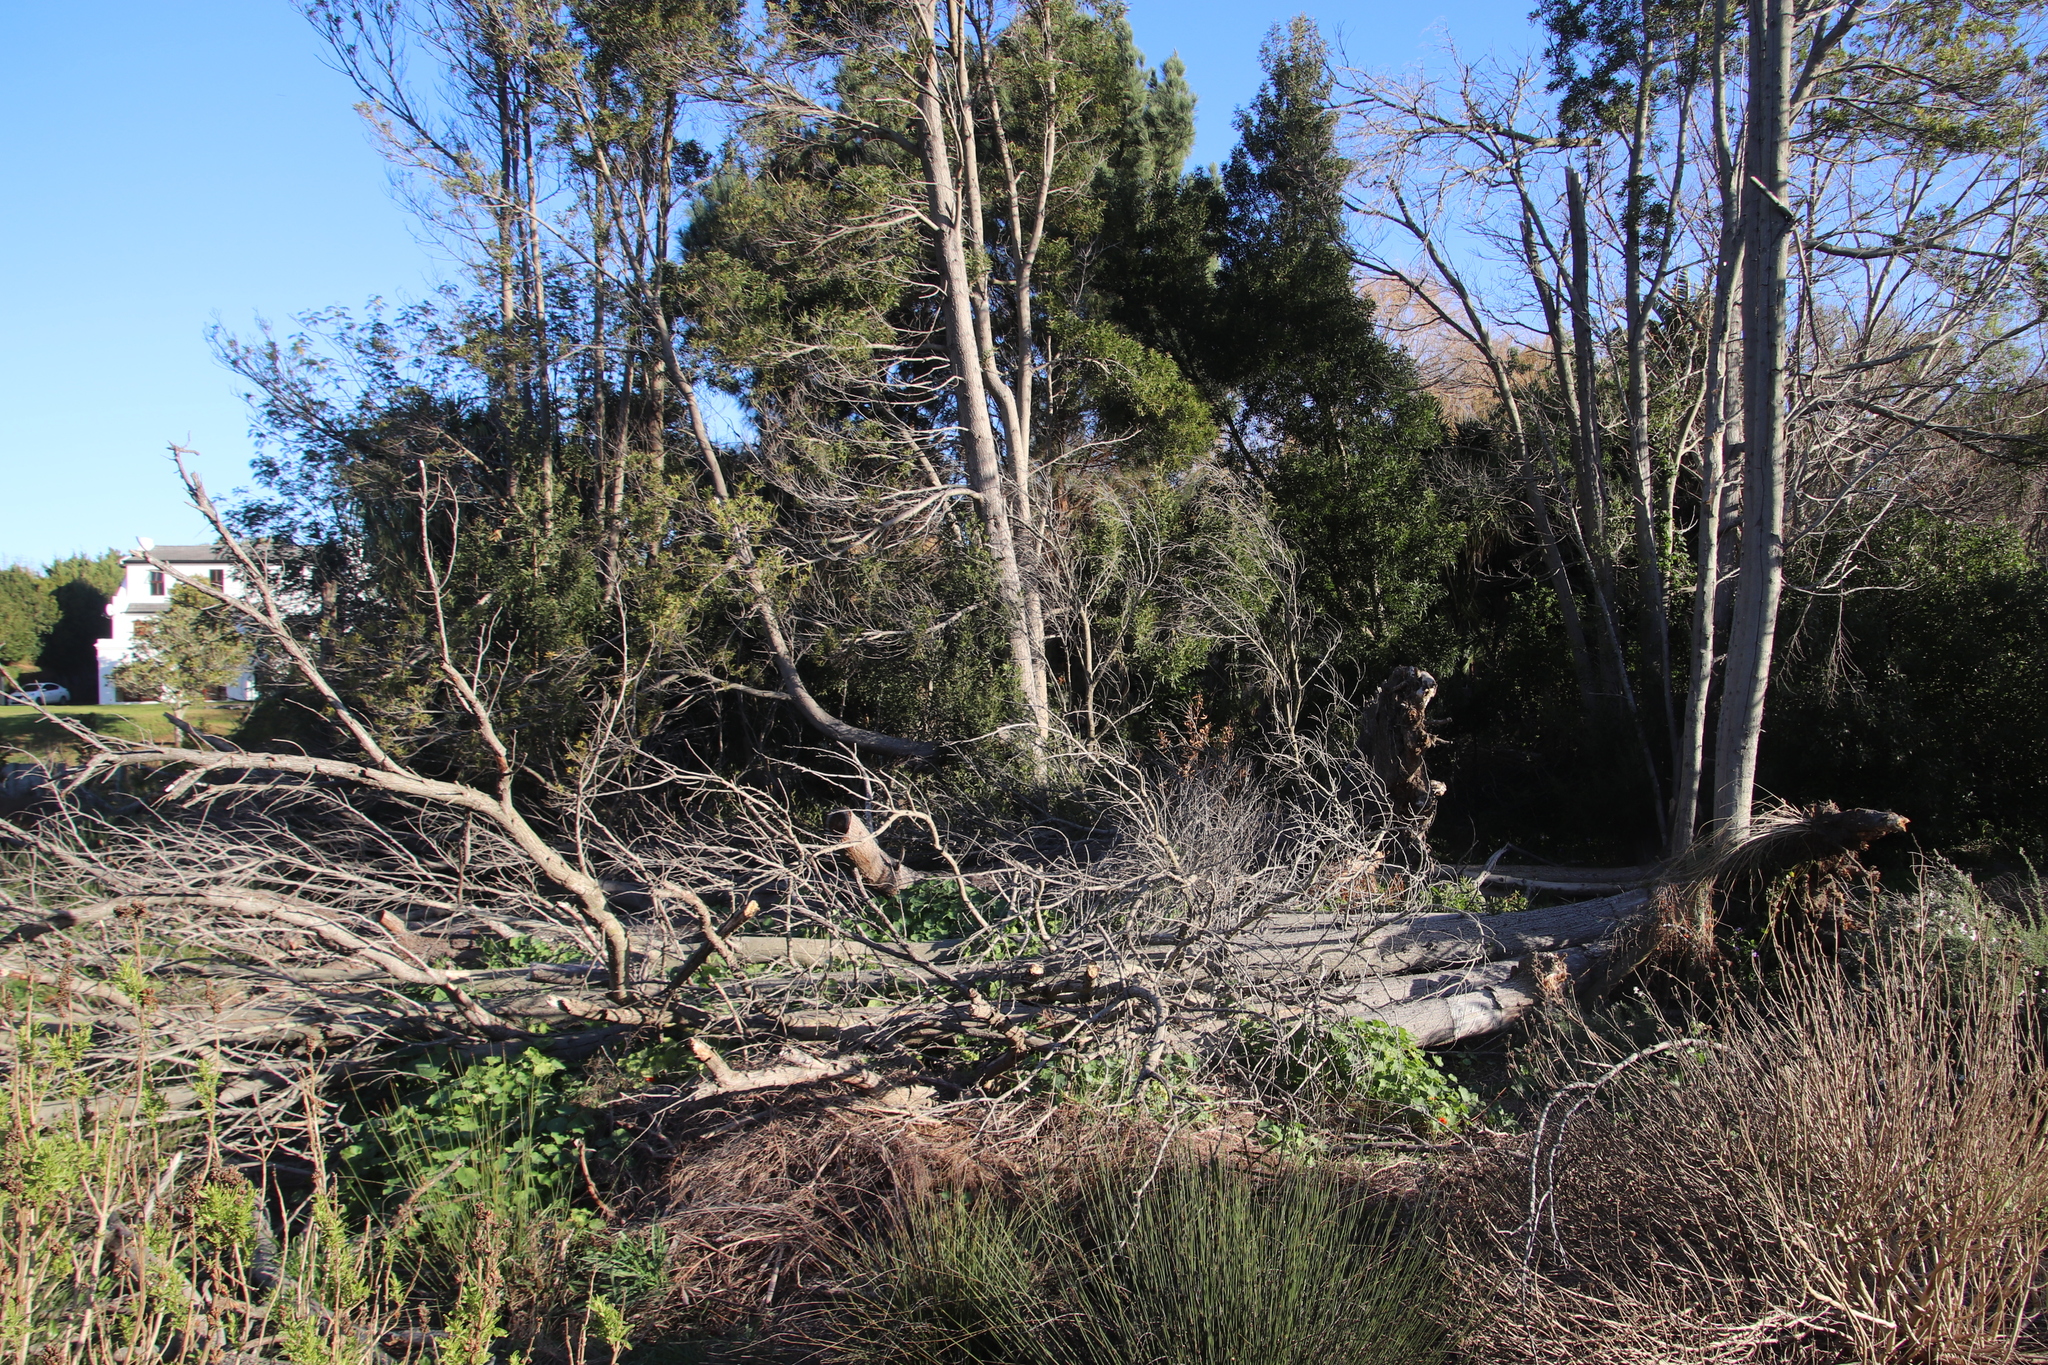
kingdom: Plantae
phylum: Tracheophyta
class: Magnoliopsida
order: Fabales
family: Fabaceae
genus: Acacia
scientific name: Acacia melanoxylon
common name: Blackwood
